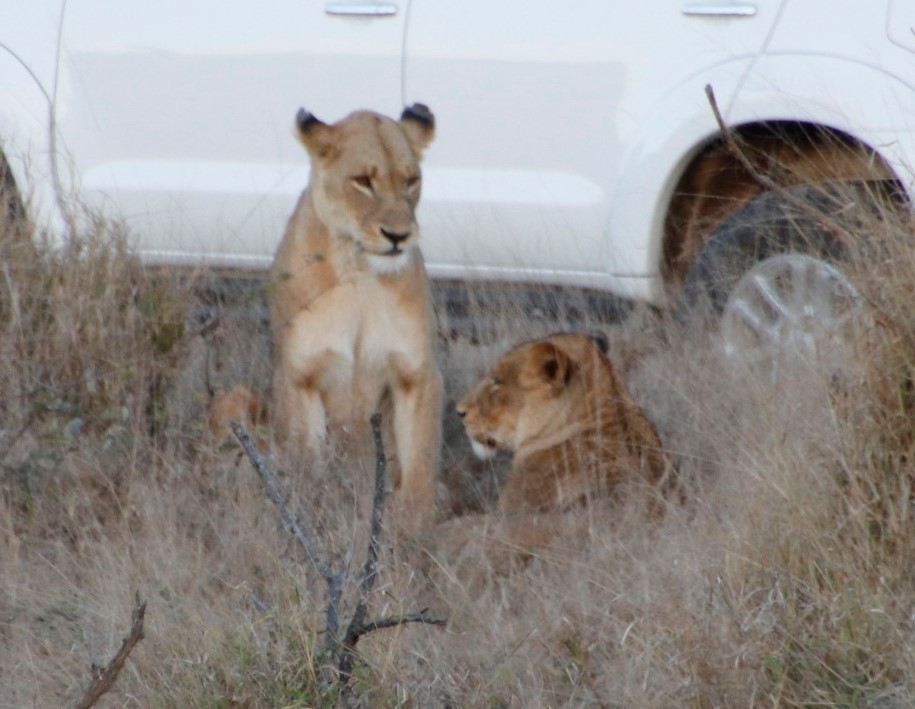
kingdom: Animalia
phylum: Chordata
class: Mammalia
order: Carnivora
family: Felidae
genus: Panthera
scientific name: Panthera leo
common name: Lion
